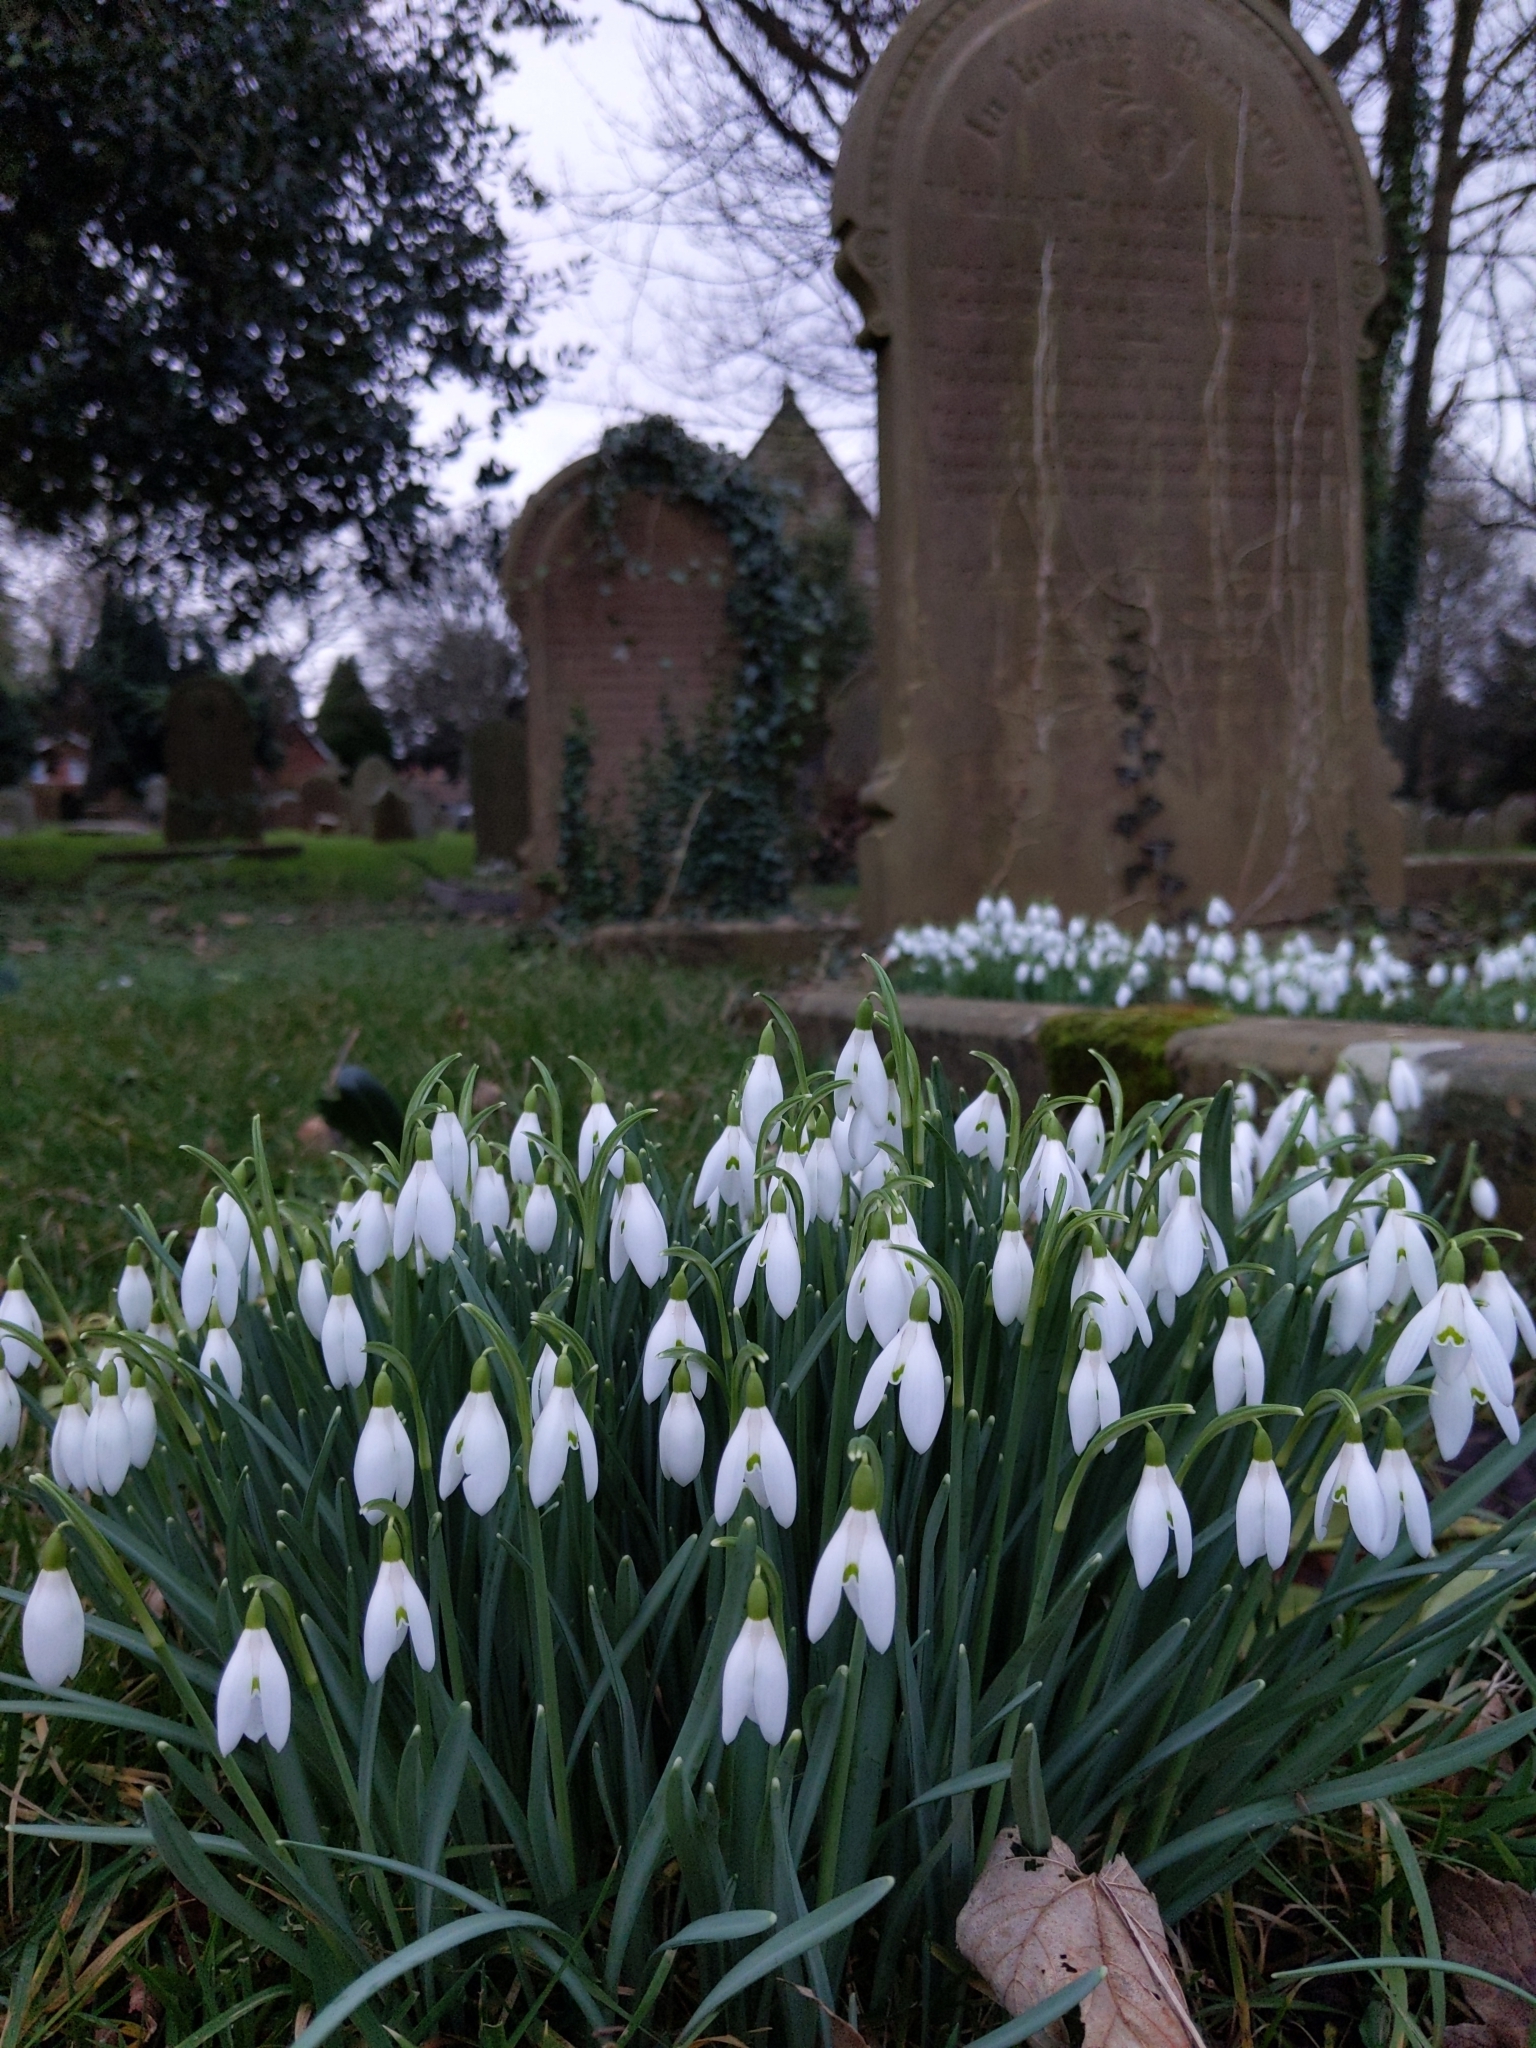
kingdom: Plantae
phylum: Tracheophyta
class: Liliopsida
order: Asparagales
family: Amaryllidaceae
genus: Galanthus
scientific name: Galanthus nivalis
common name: Snowdrop
